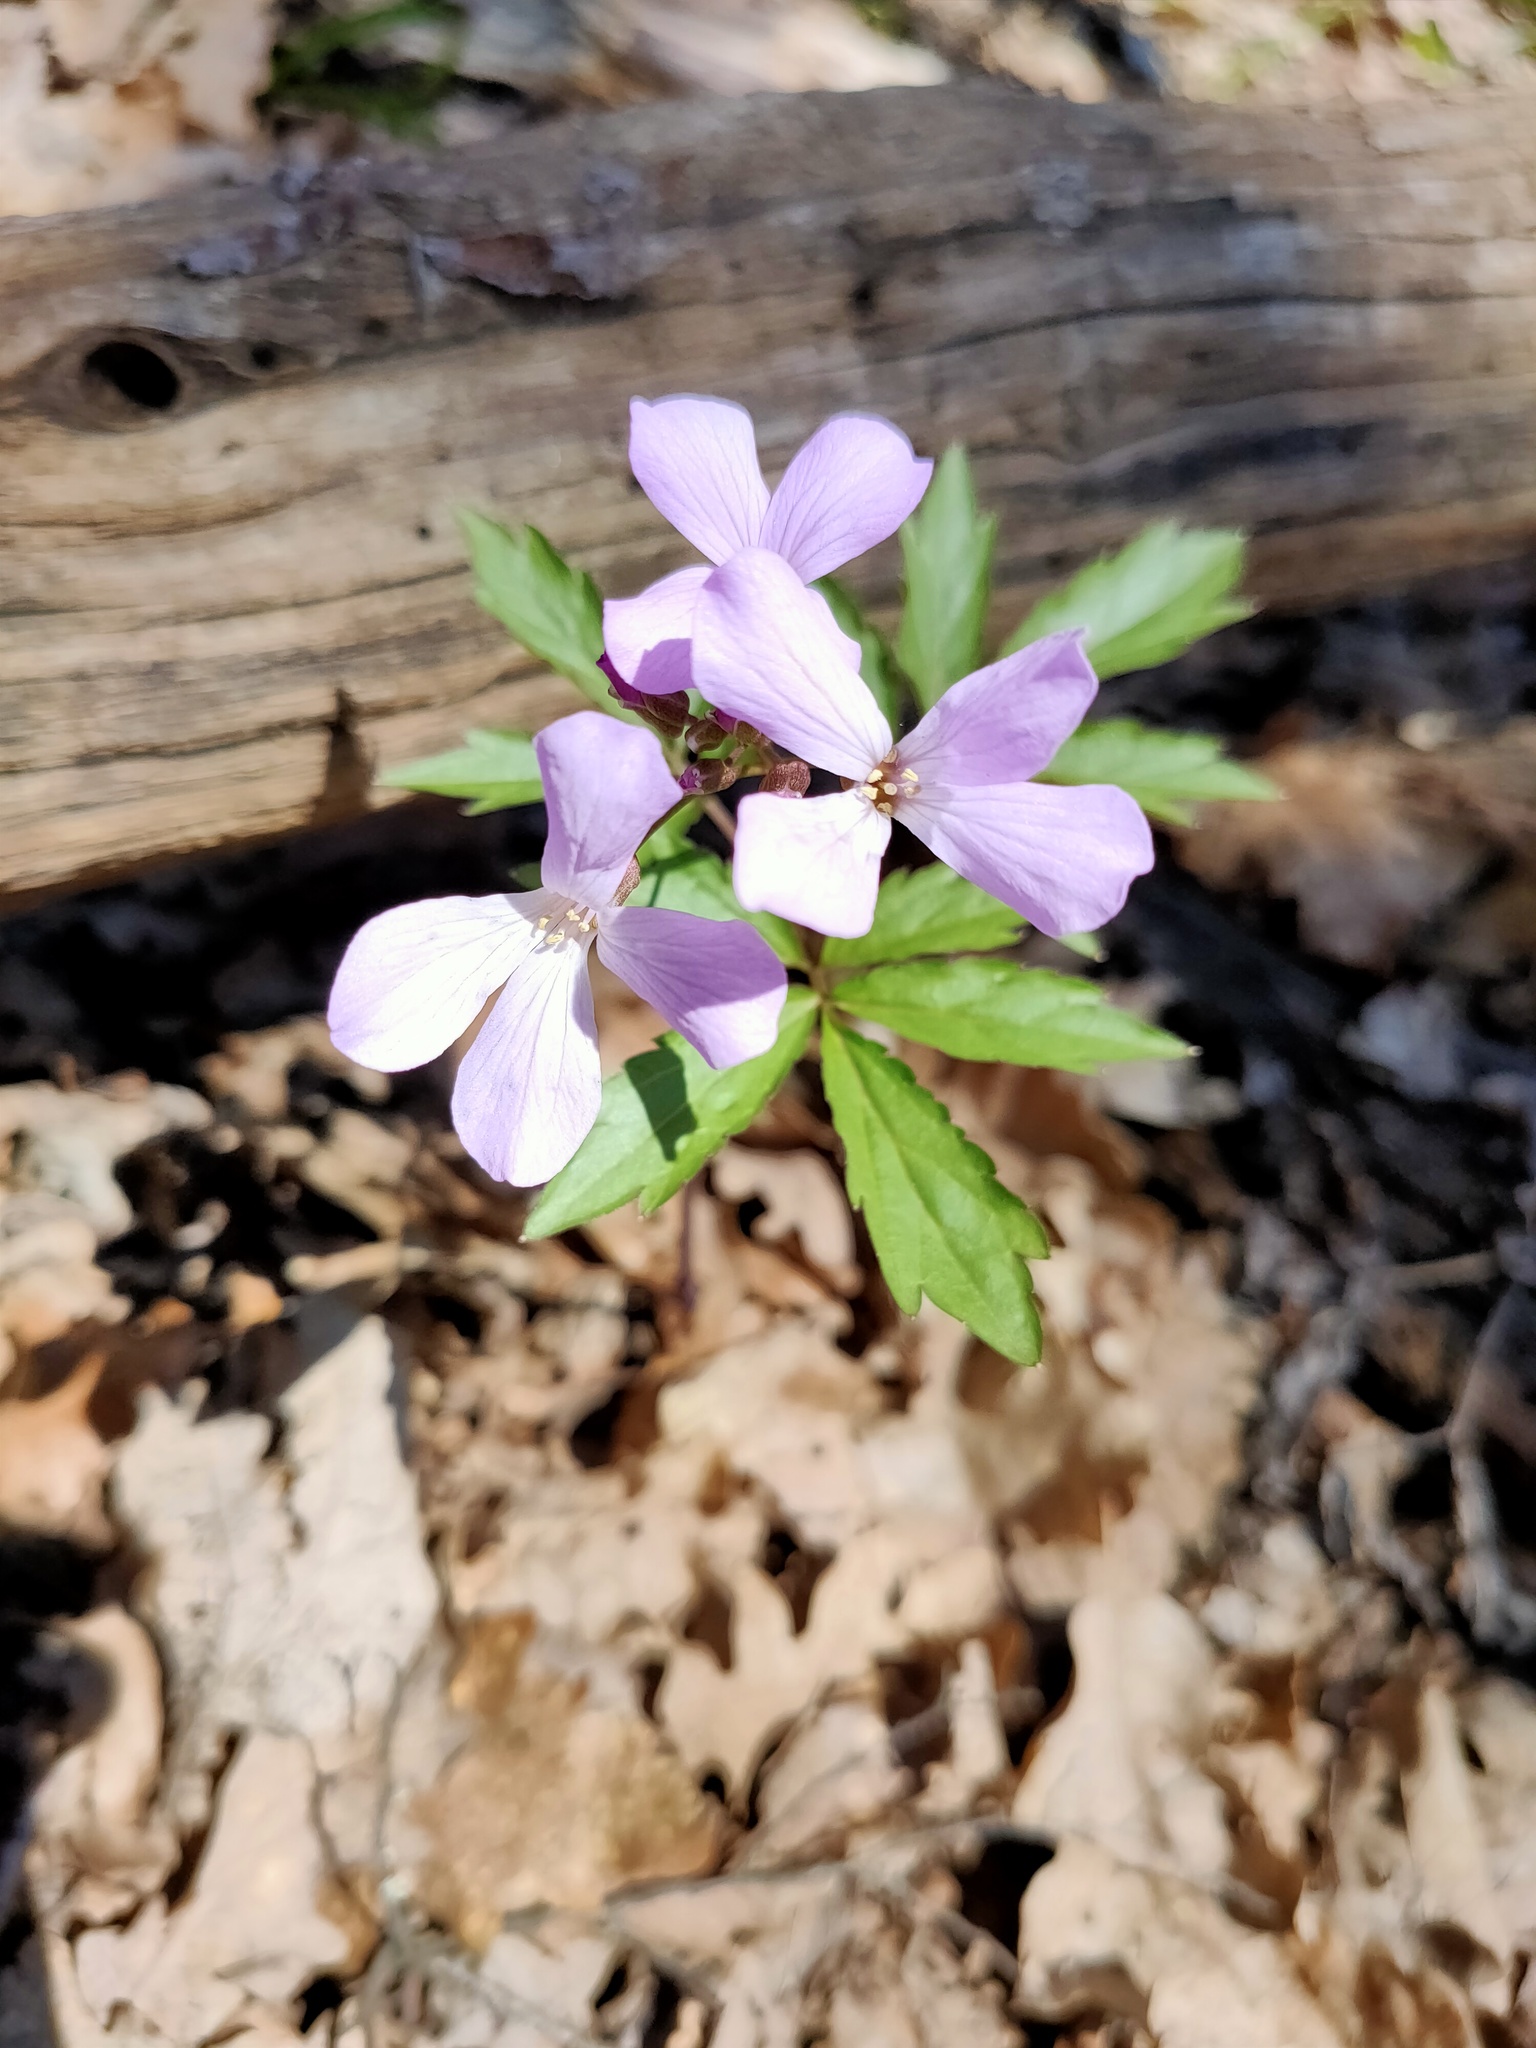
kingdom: Plantae
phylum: Tracheophyta
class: Magnoliopsida
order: Brassicales
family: Brassicaceae
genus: Cardamine
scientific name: Cardamine quinquefolia
